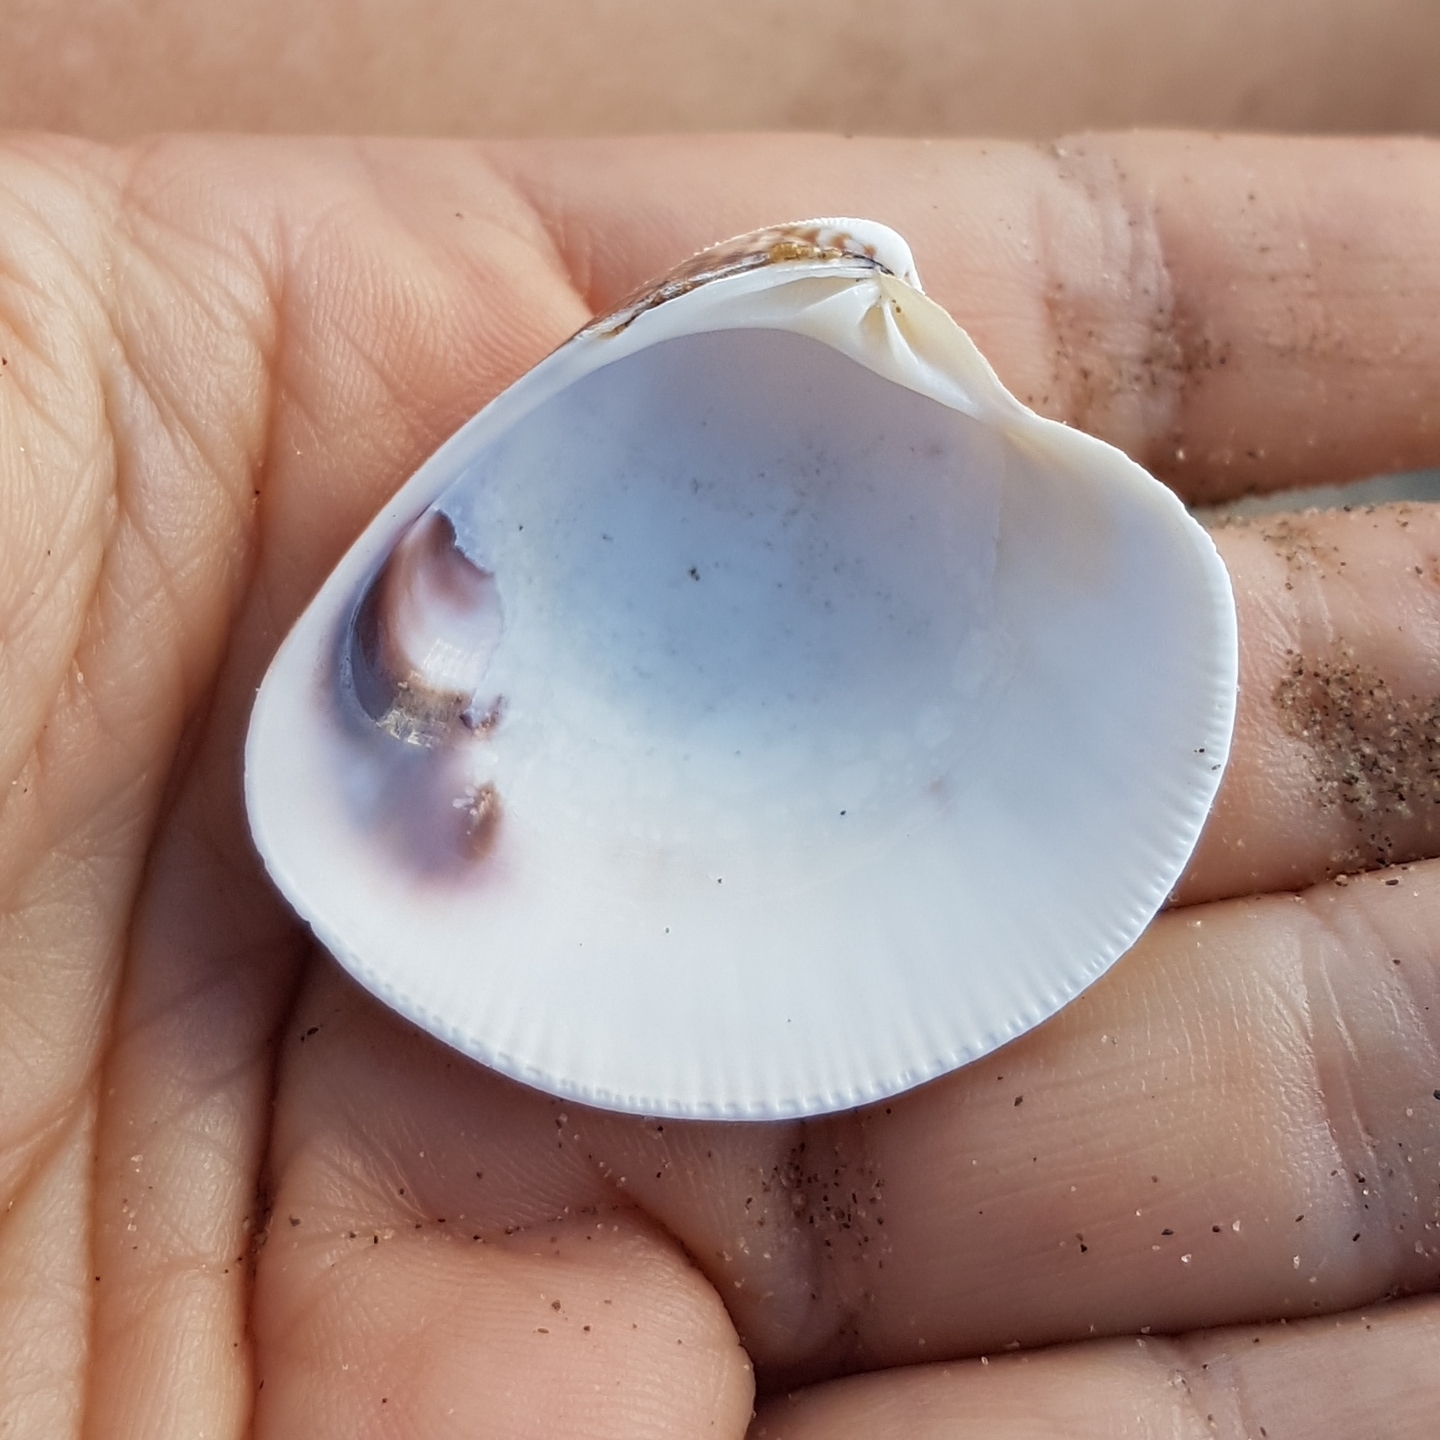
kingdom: Animalia
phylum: Mollusca
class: Bivalvia
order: Venerida
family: Veneridae
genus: Chamelea
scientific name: Chamelea gallina
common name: Chicken venus
